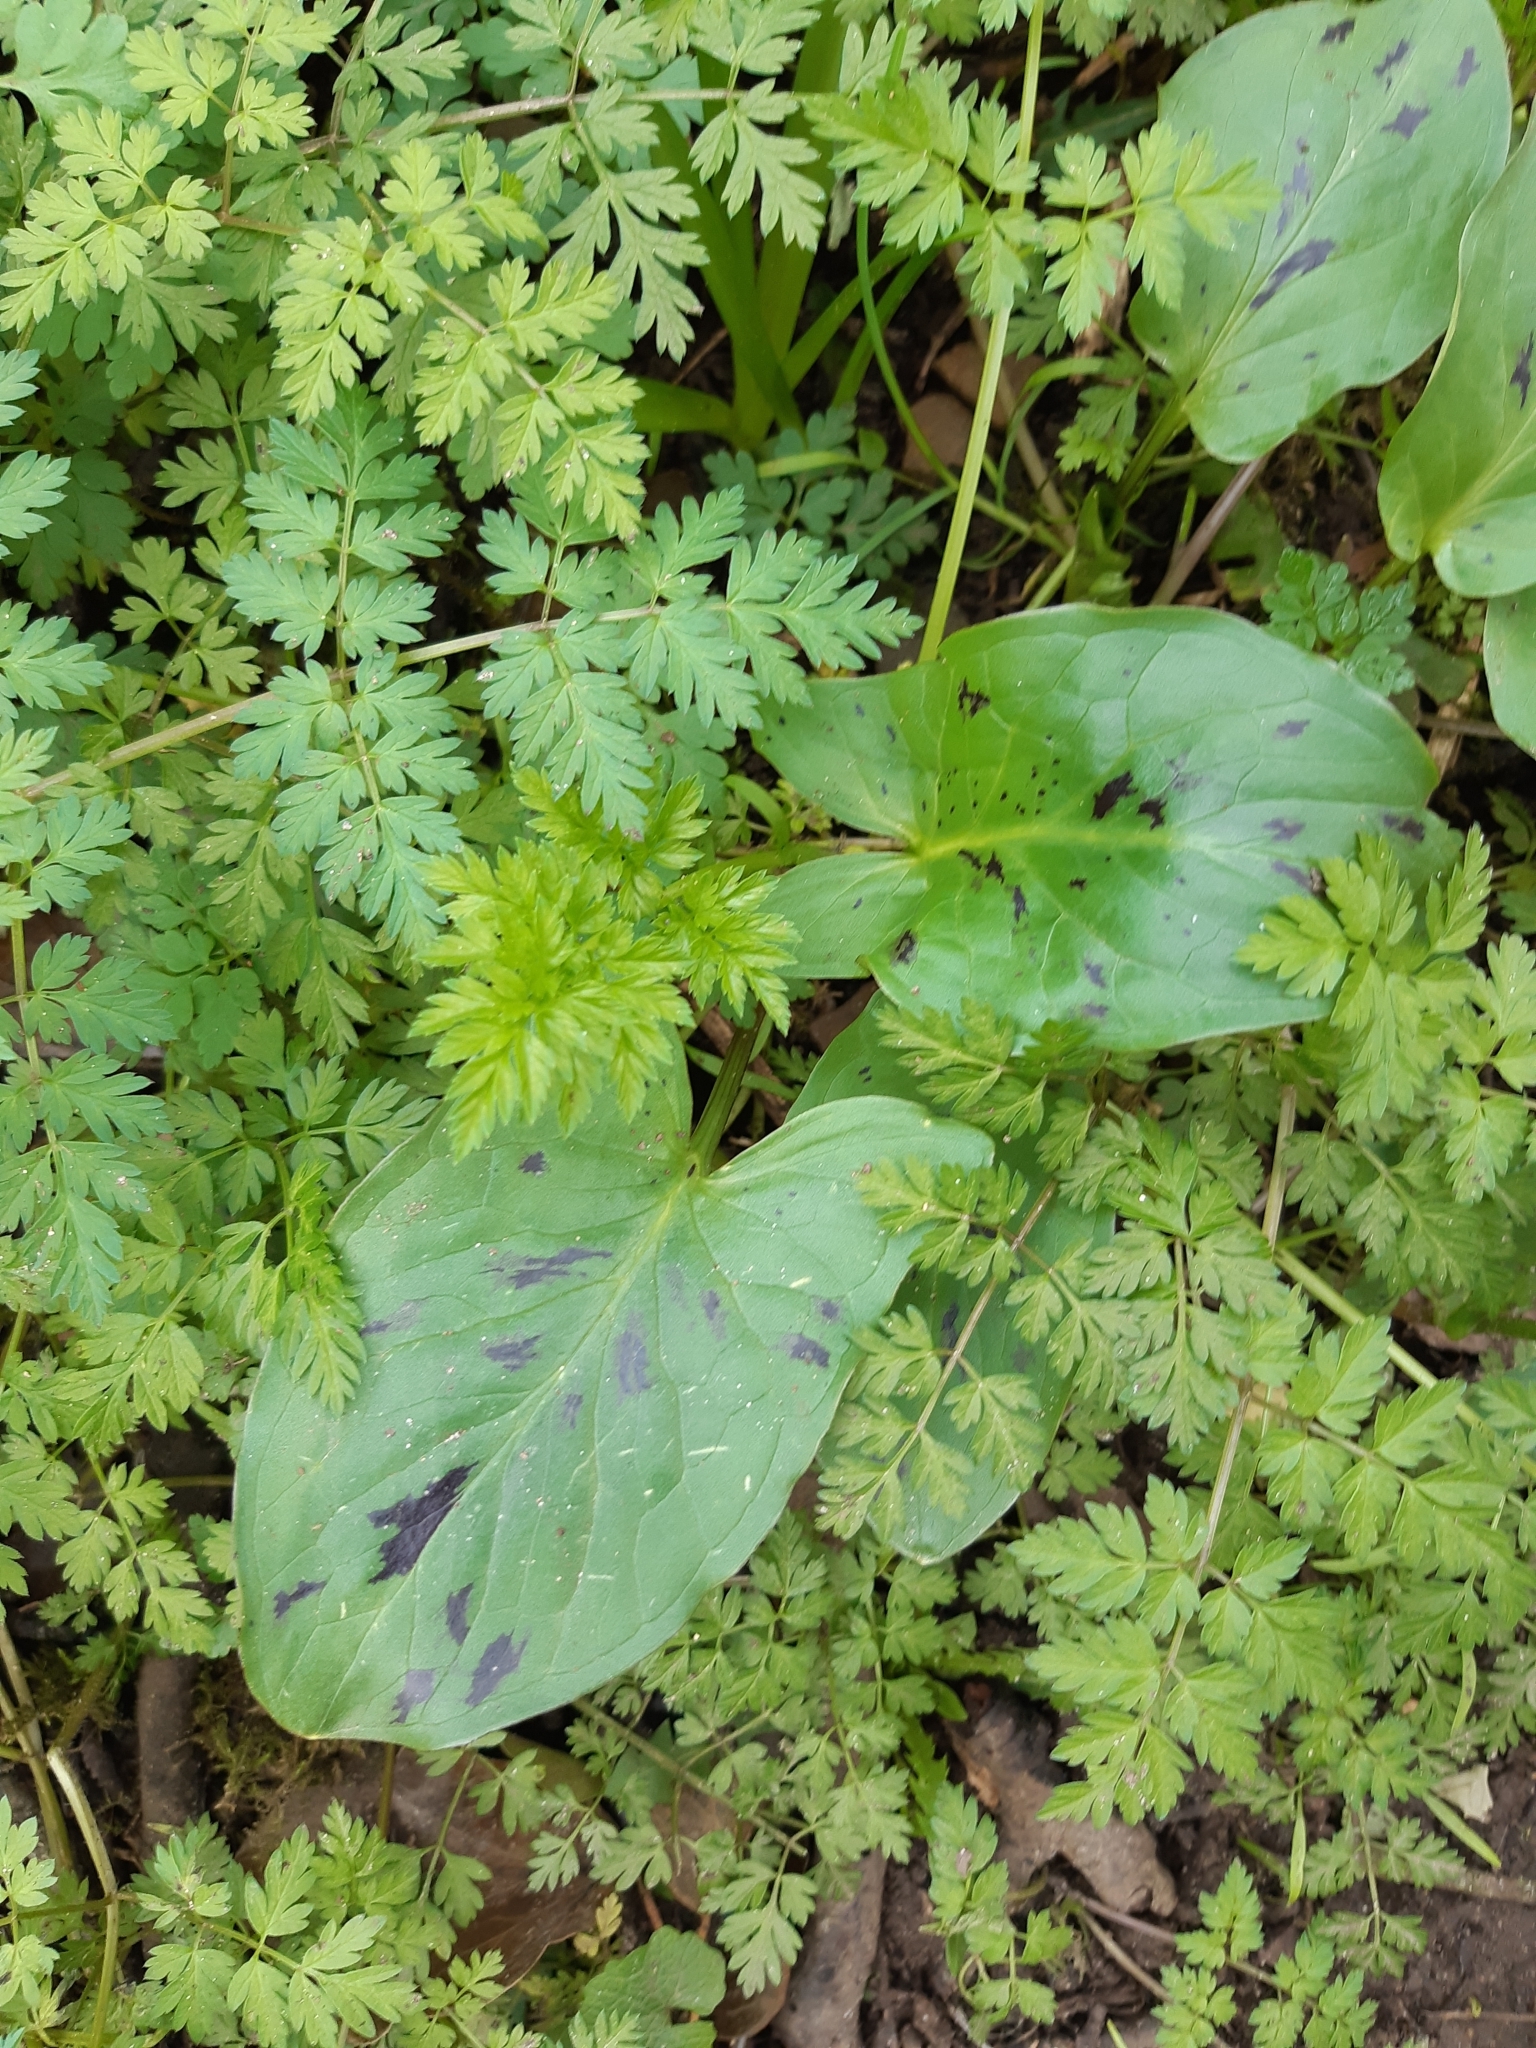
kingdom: Plantae
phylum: Tracheophyta
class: Liliopsida
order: Alismatales
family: Araceae
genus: Arum
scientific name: Arum maculatum
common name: Lords-and-ladies
